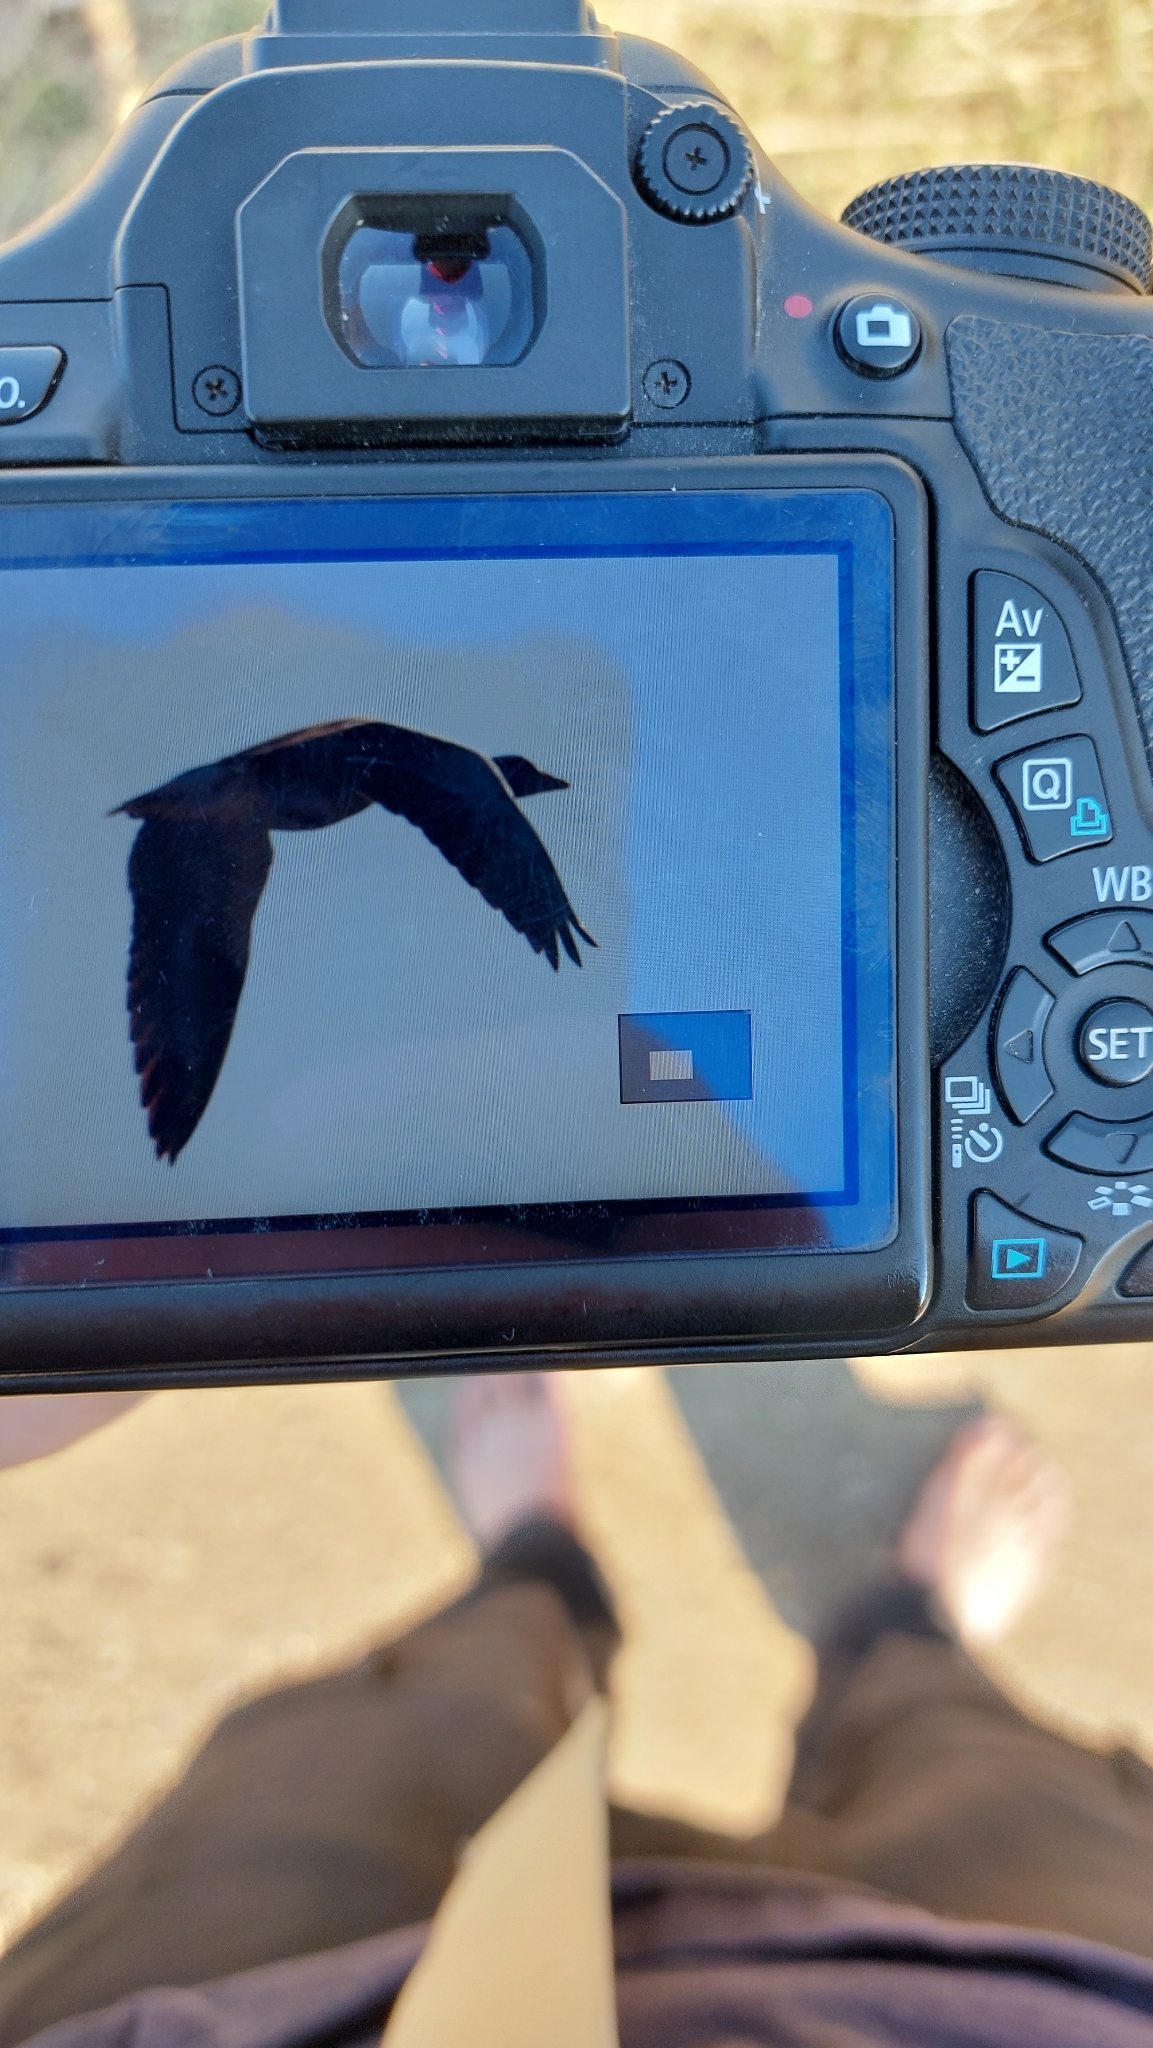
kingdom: Animalia
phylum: Chordata
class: Aves
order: Anseriformes
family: Anatidae
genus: Anser
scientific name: Anser anser
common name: Greylag goose
